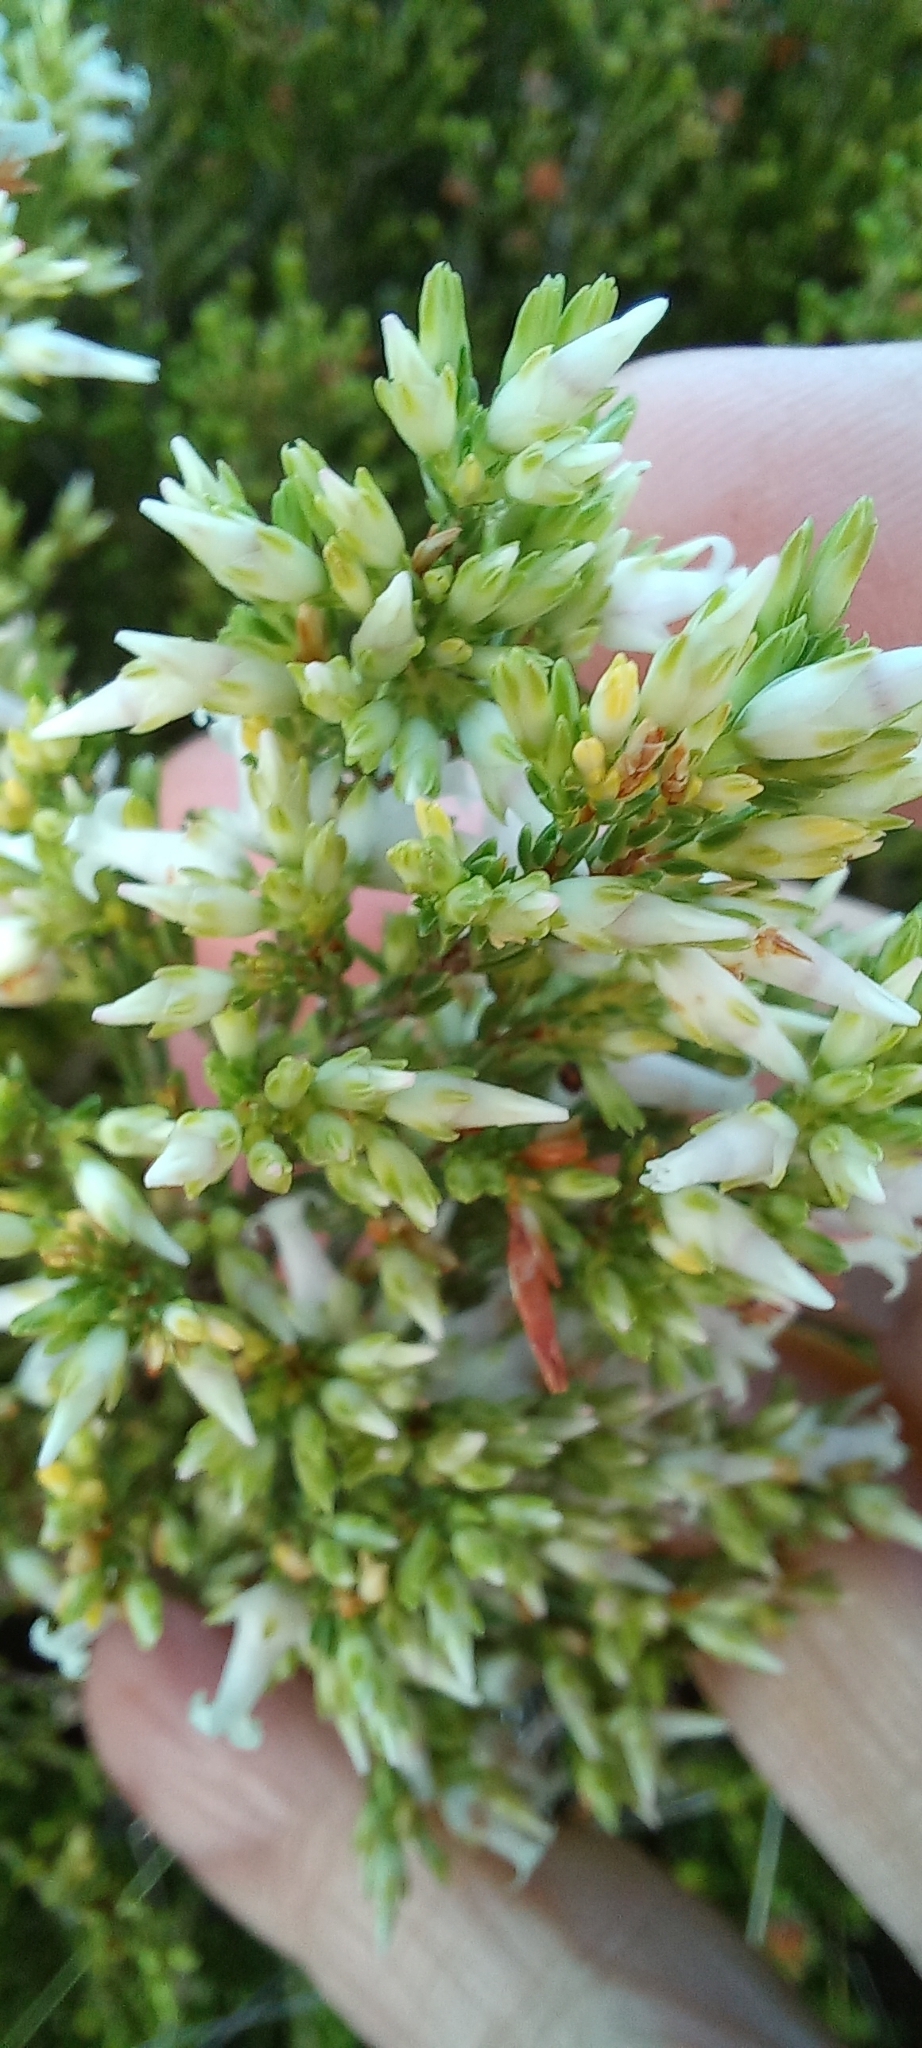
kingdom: Plantae
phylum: Tracheophyta
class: Magnoliopsida
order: Ericales
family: Ericaceae
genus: Erica
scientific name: Erica lutea
